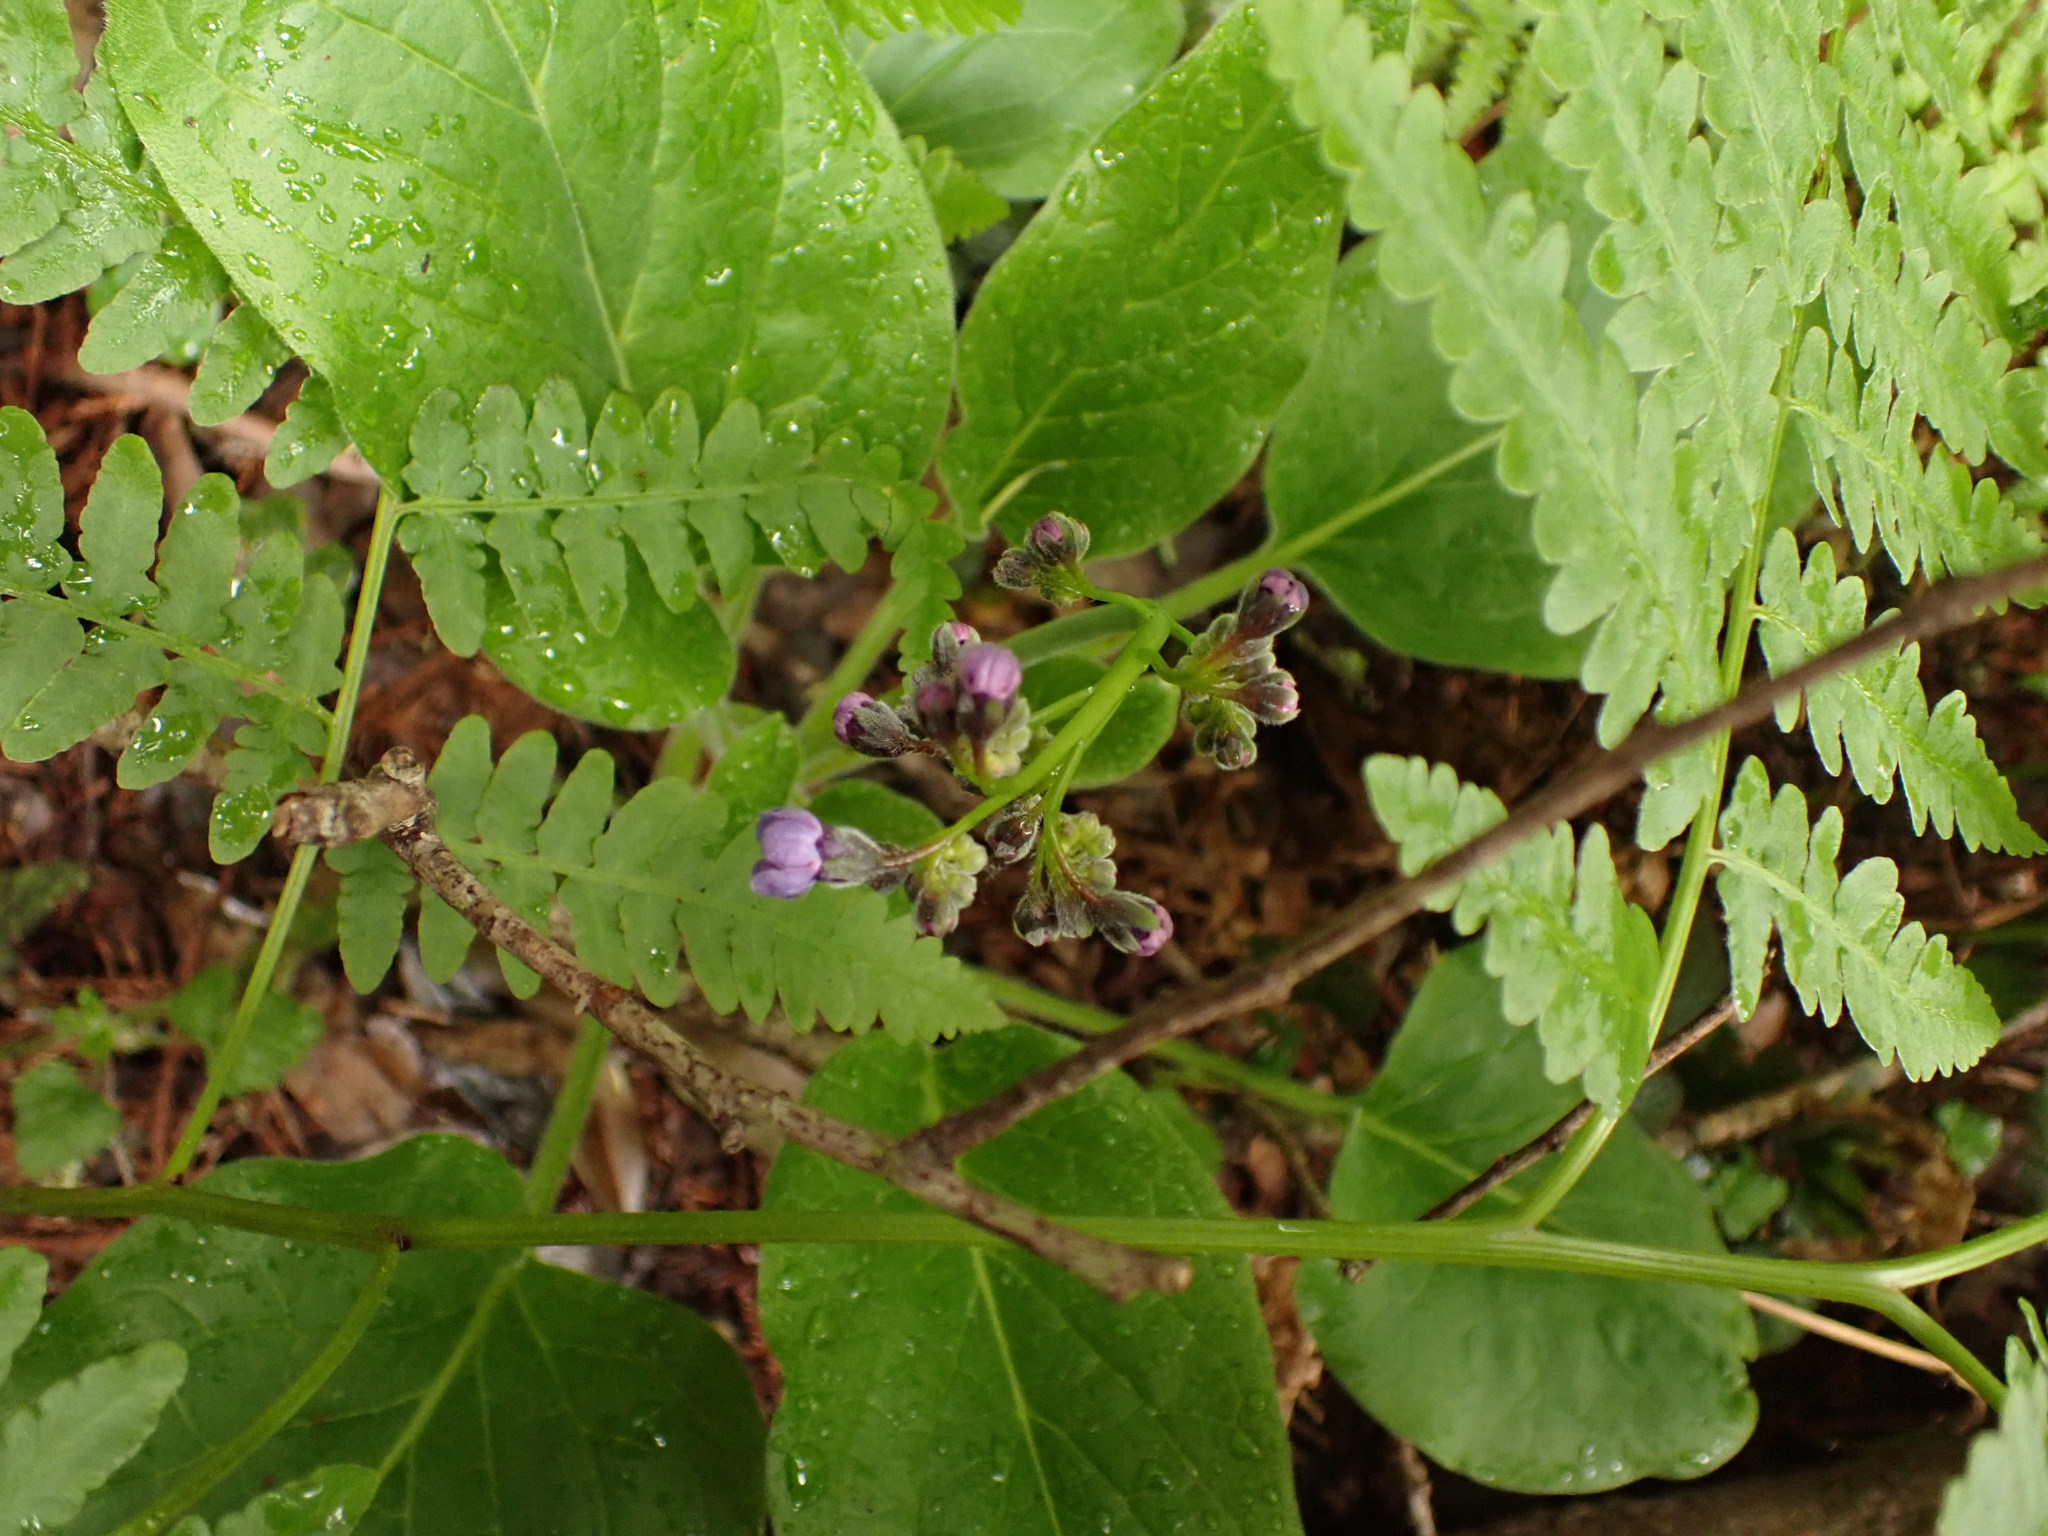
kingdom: Plantae
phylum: Tracheophyta
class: Magnoliopsida
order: Boraginales
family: Boraginaceae
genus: Adelinia
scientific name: Adelinia grande
